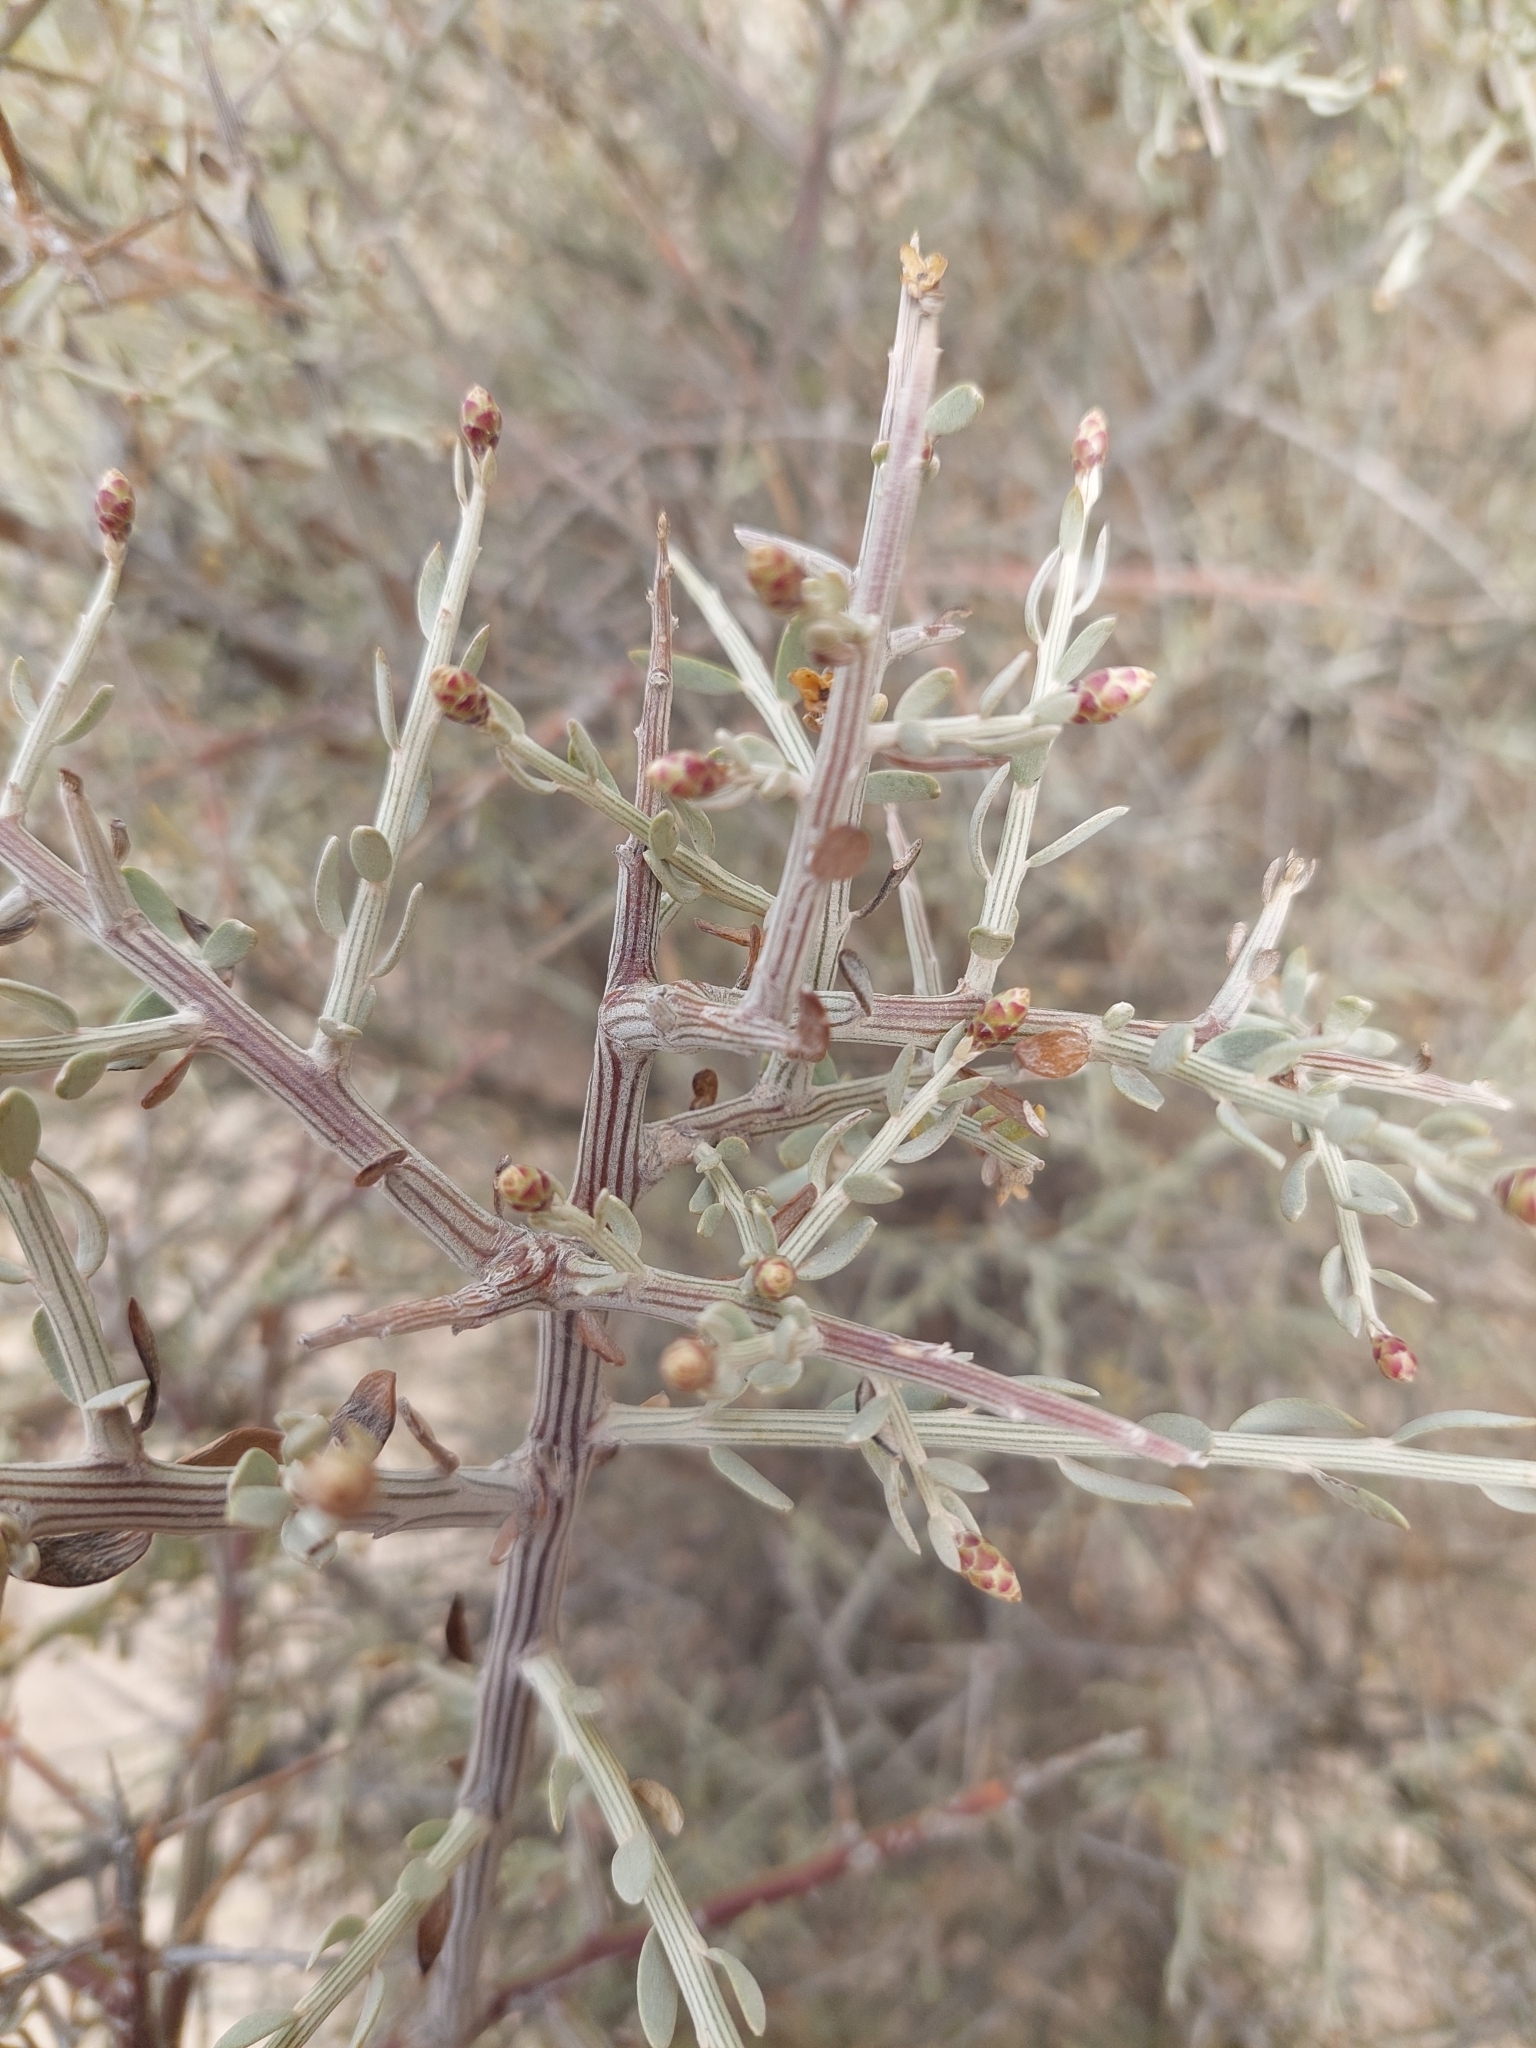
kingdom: Plantae
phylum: Tracheophyta
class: Magnoliopsida
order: Asterales
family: Asteraceae
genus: Cyclolepis
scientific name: Cyclolepis genistoides
